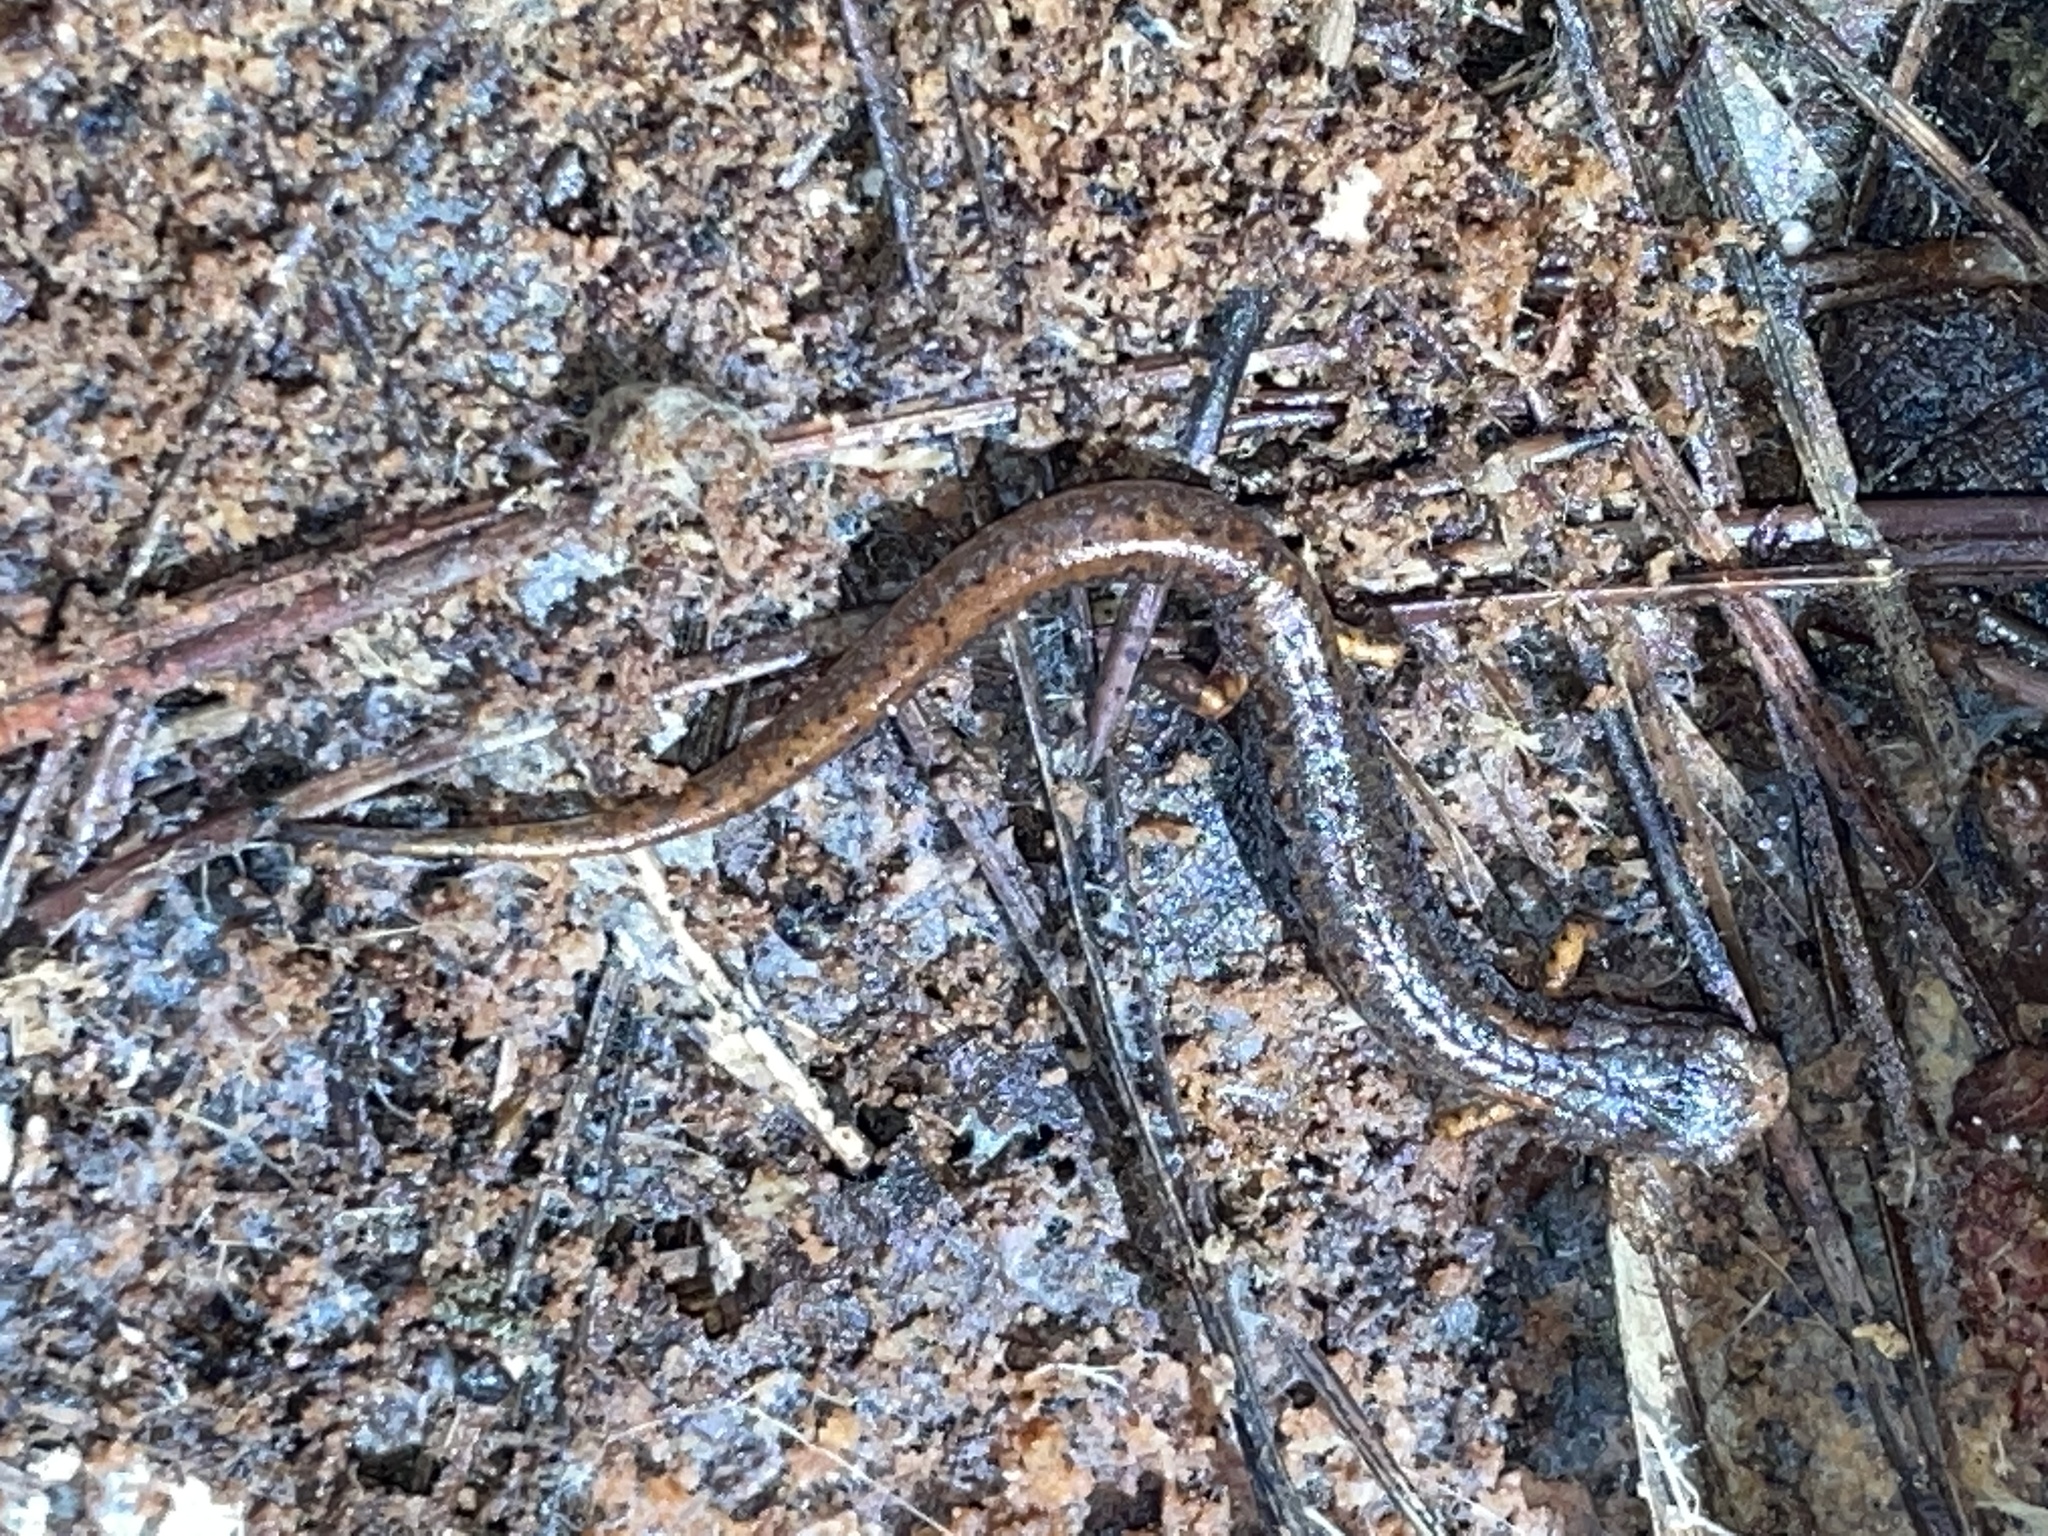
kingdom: Animalia
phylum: Chordata
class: Amphibia
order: Caudata
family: Plethodontidae
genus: Hemidactylium
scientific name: Hemidactylium scutatum
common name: Four-toed salamander
